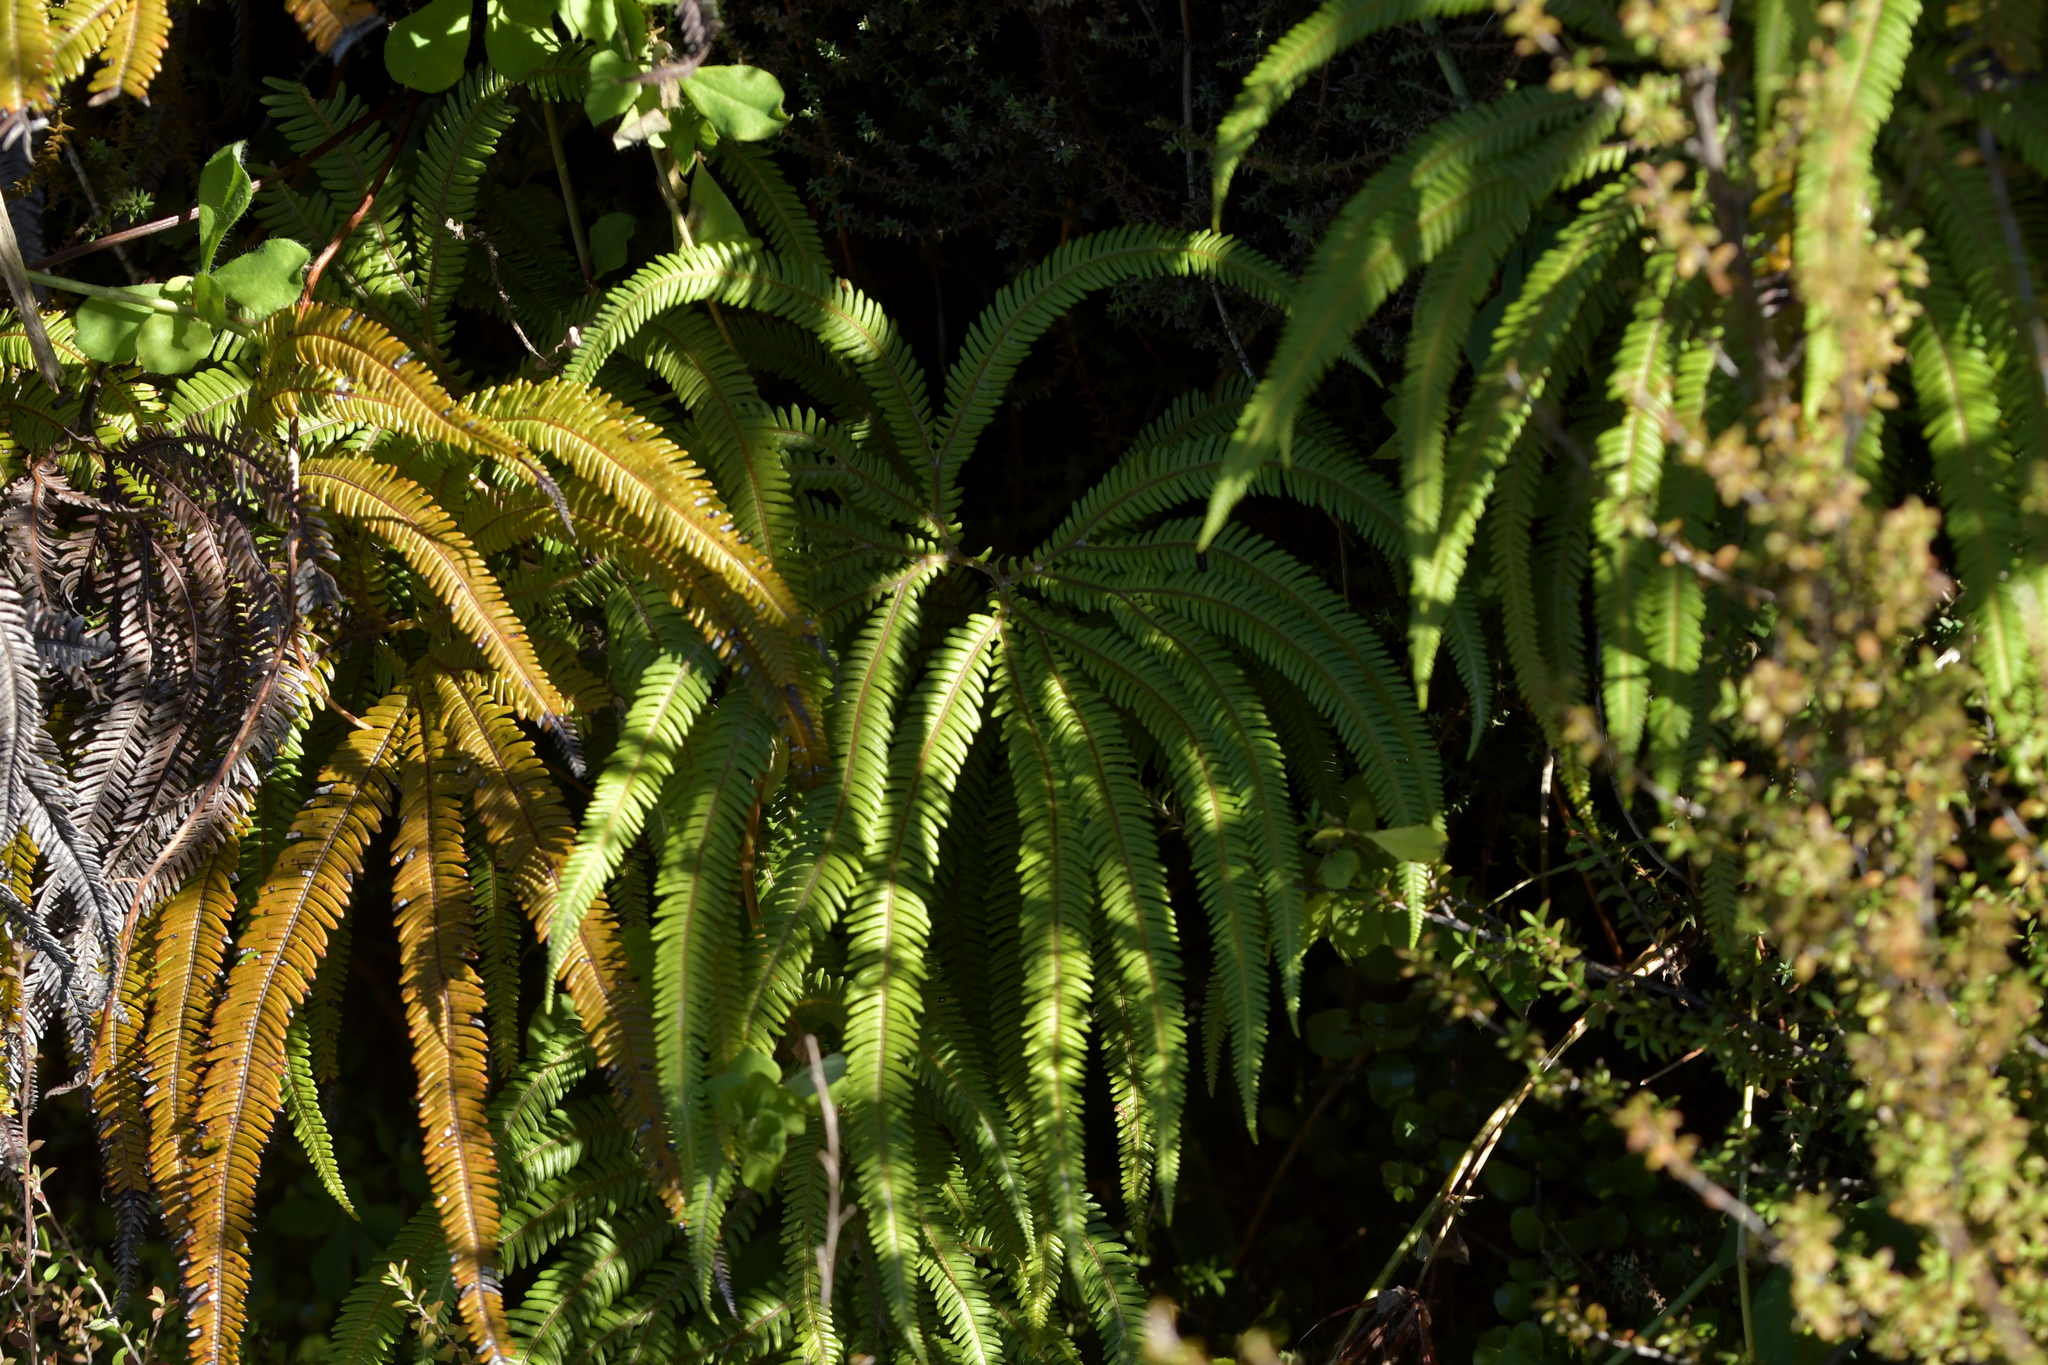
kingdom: Plantae
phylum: Tracheophyta
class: Polypodiopsida
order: Gleicheniales
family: Gleicheniaceae
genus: Sticherus
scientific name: Sticherus cunninghamii
